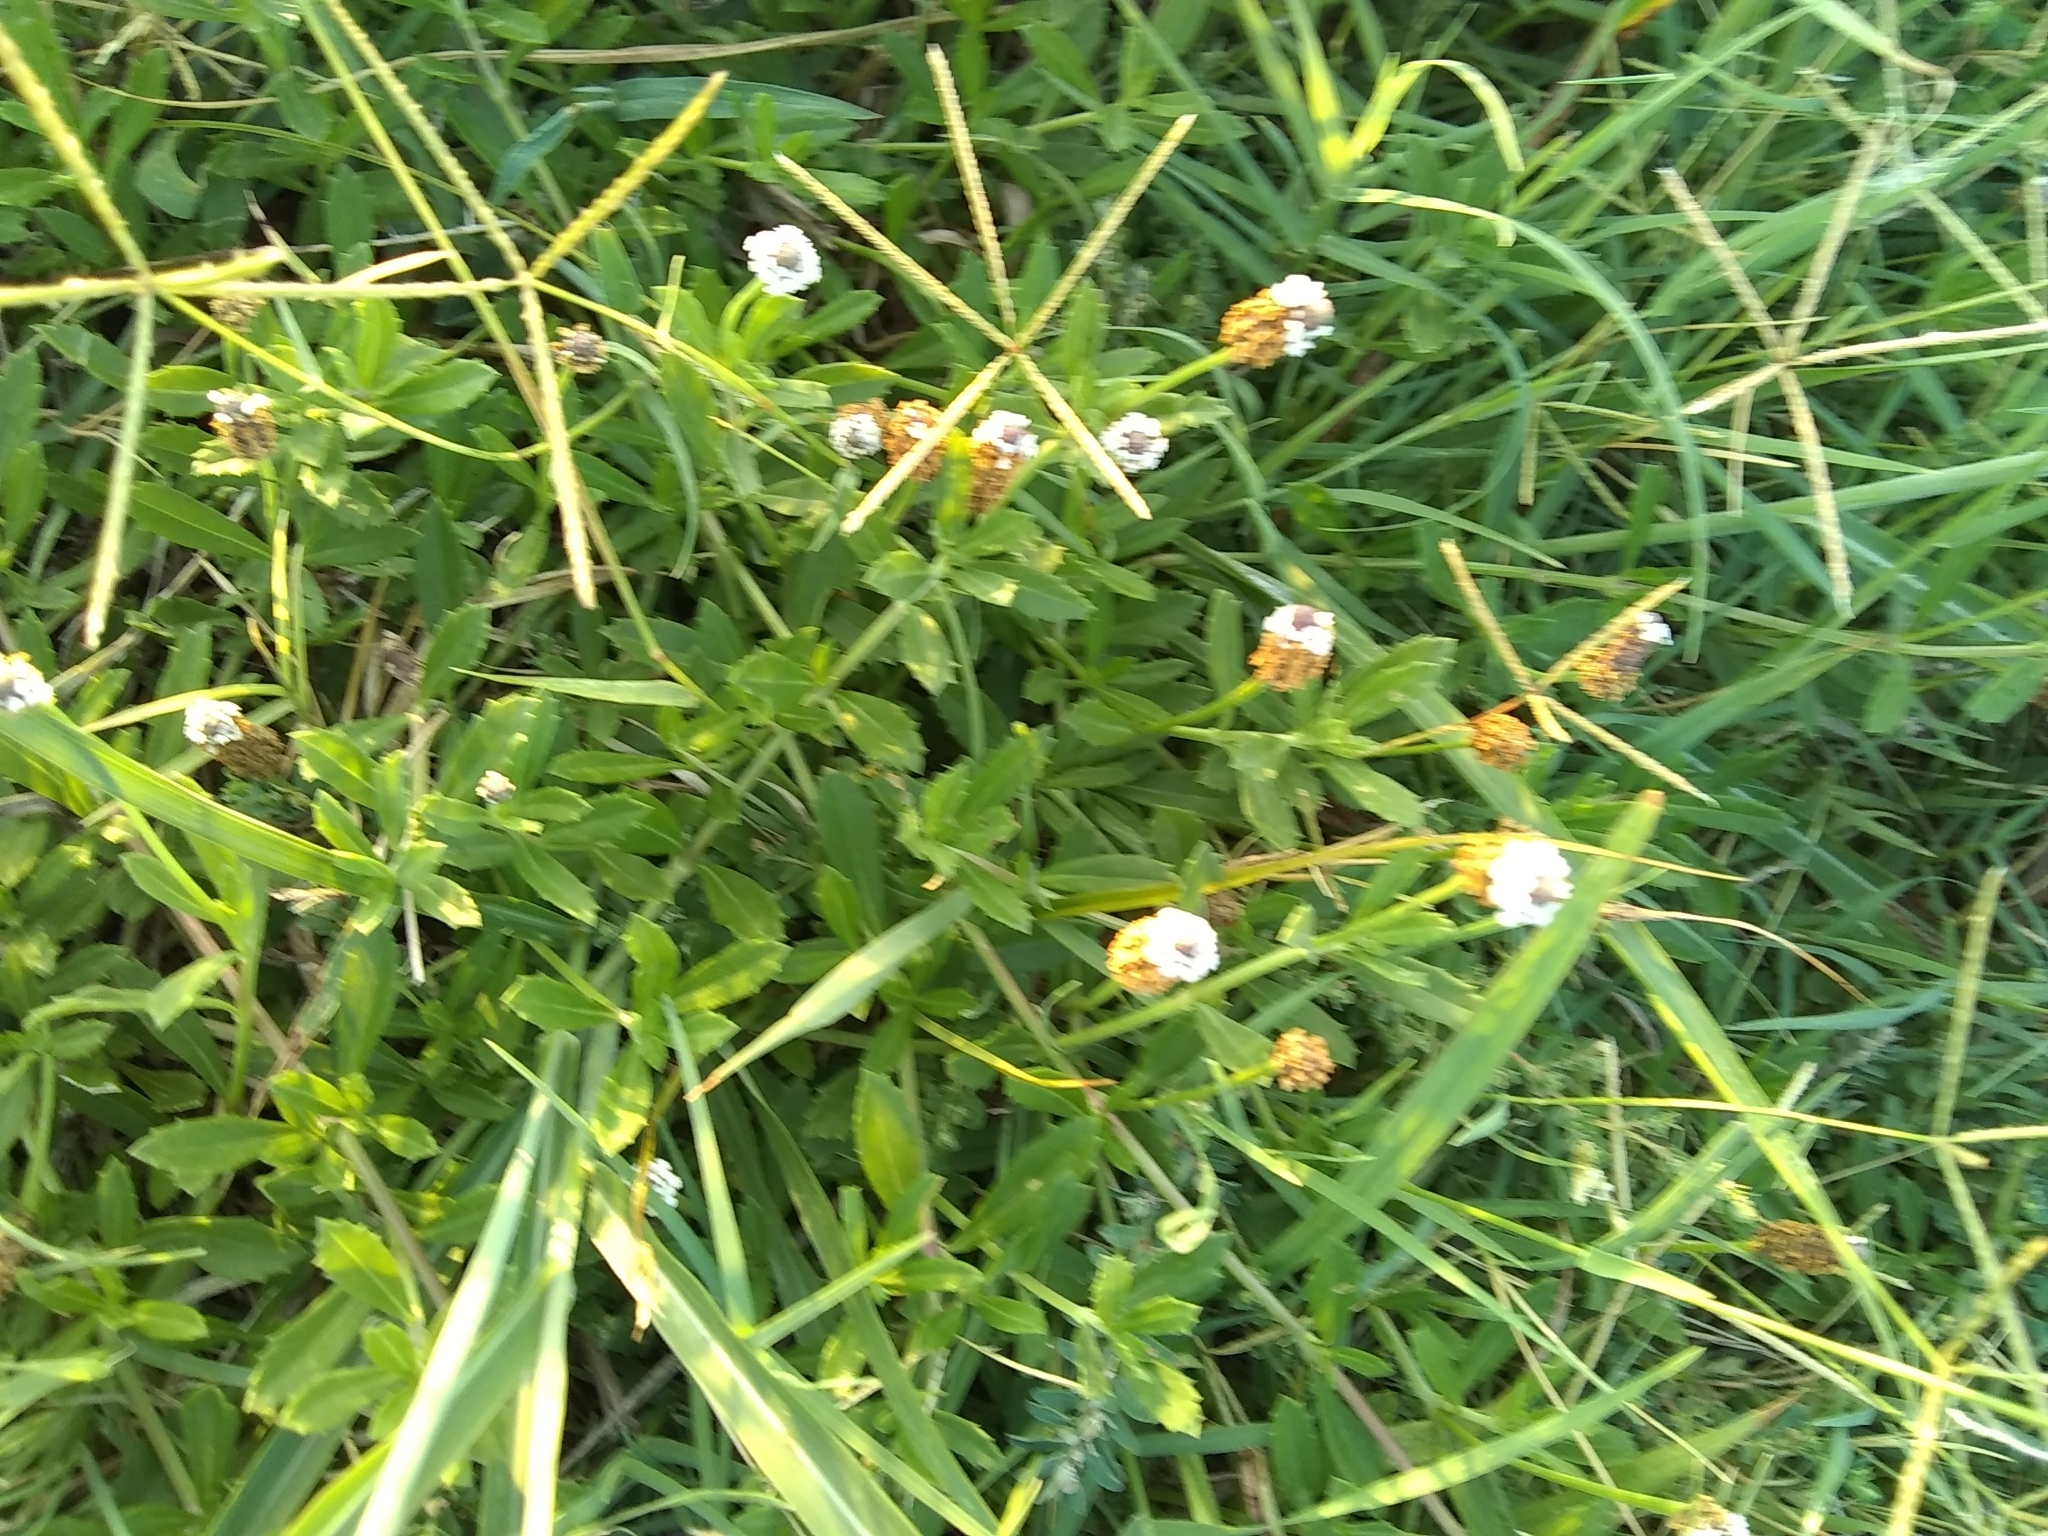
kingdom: Plantae
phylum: Tracheophyta
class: Magnoliopsida
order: Lamiales
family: Verbenaceae
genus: Phyla
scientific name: Phyla nodiflora
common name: Frogfruit
